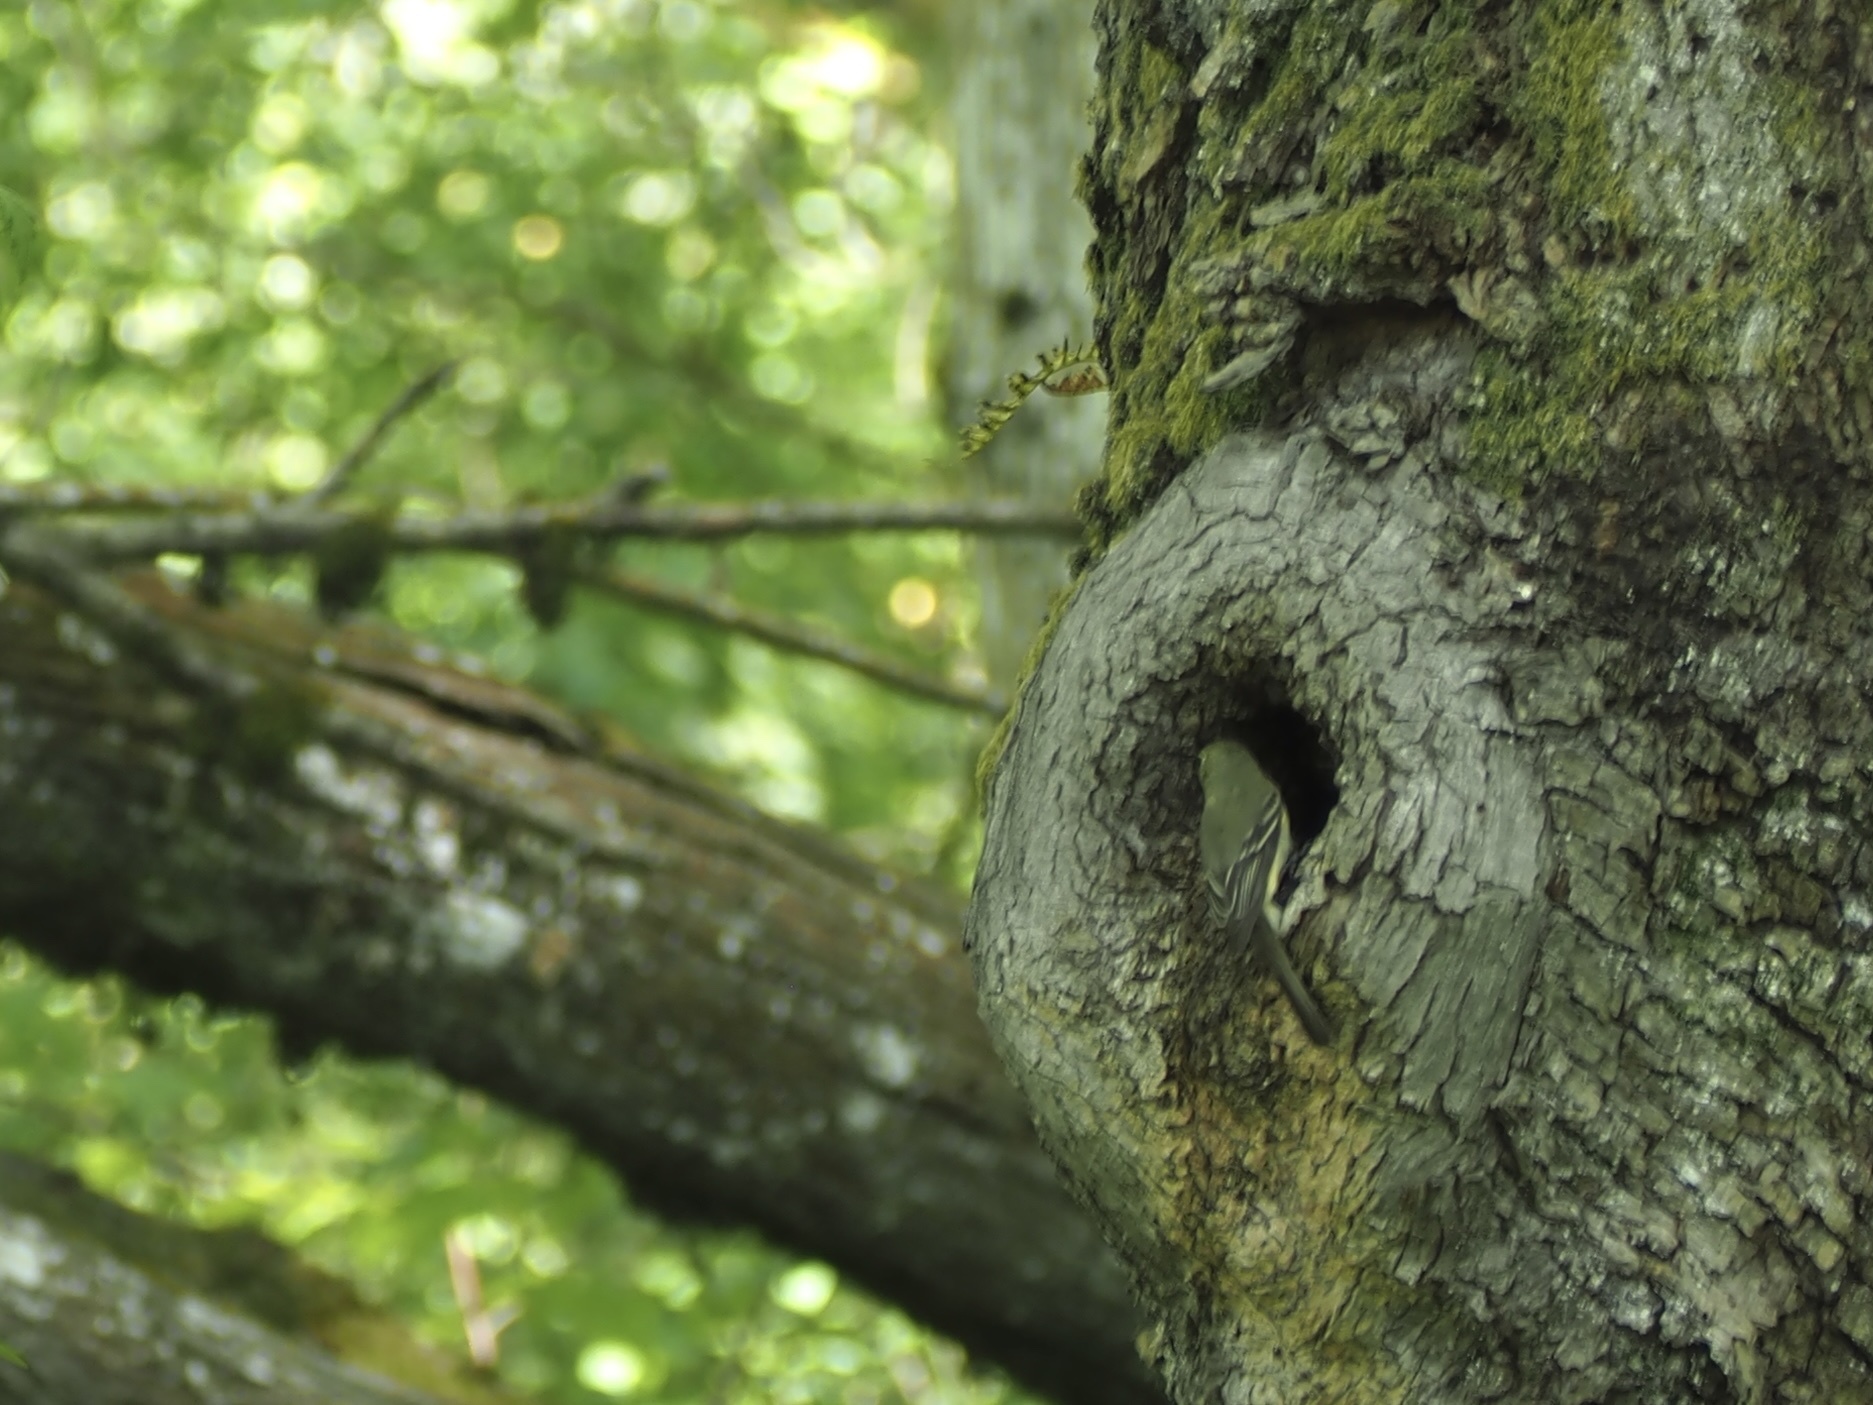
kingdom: Animalia
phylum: Chordata
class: Aves
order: Passeriformes
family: Tyrannidae
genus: Empidonax
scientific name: Empidonax difficilis
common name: Pacific-slope flycatcher
